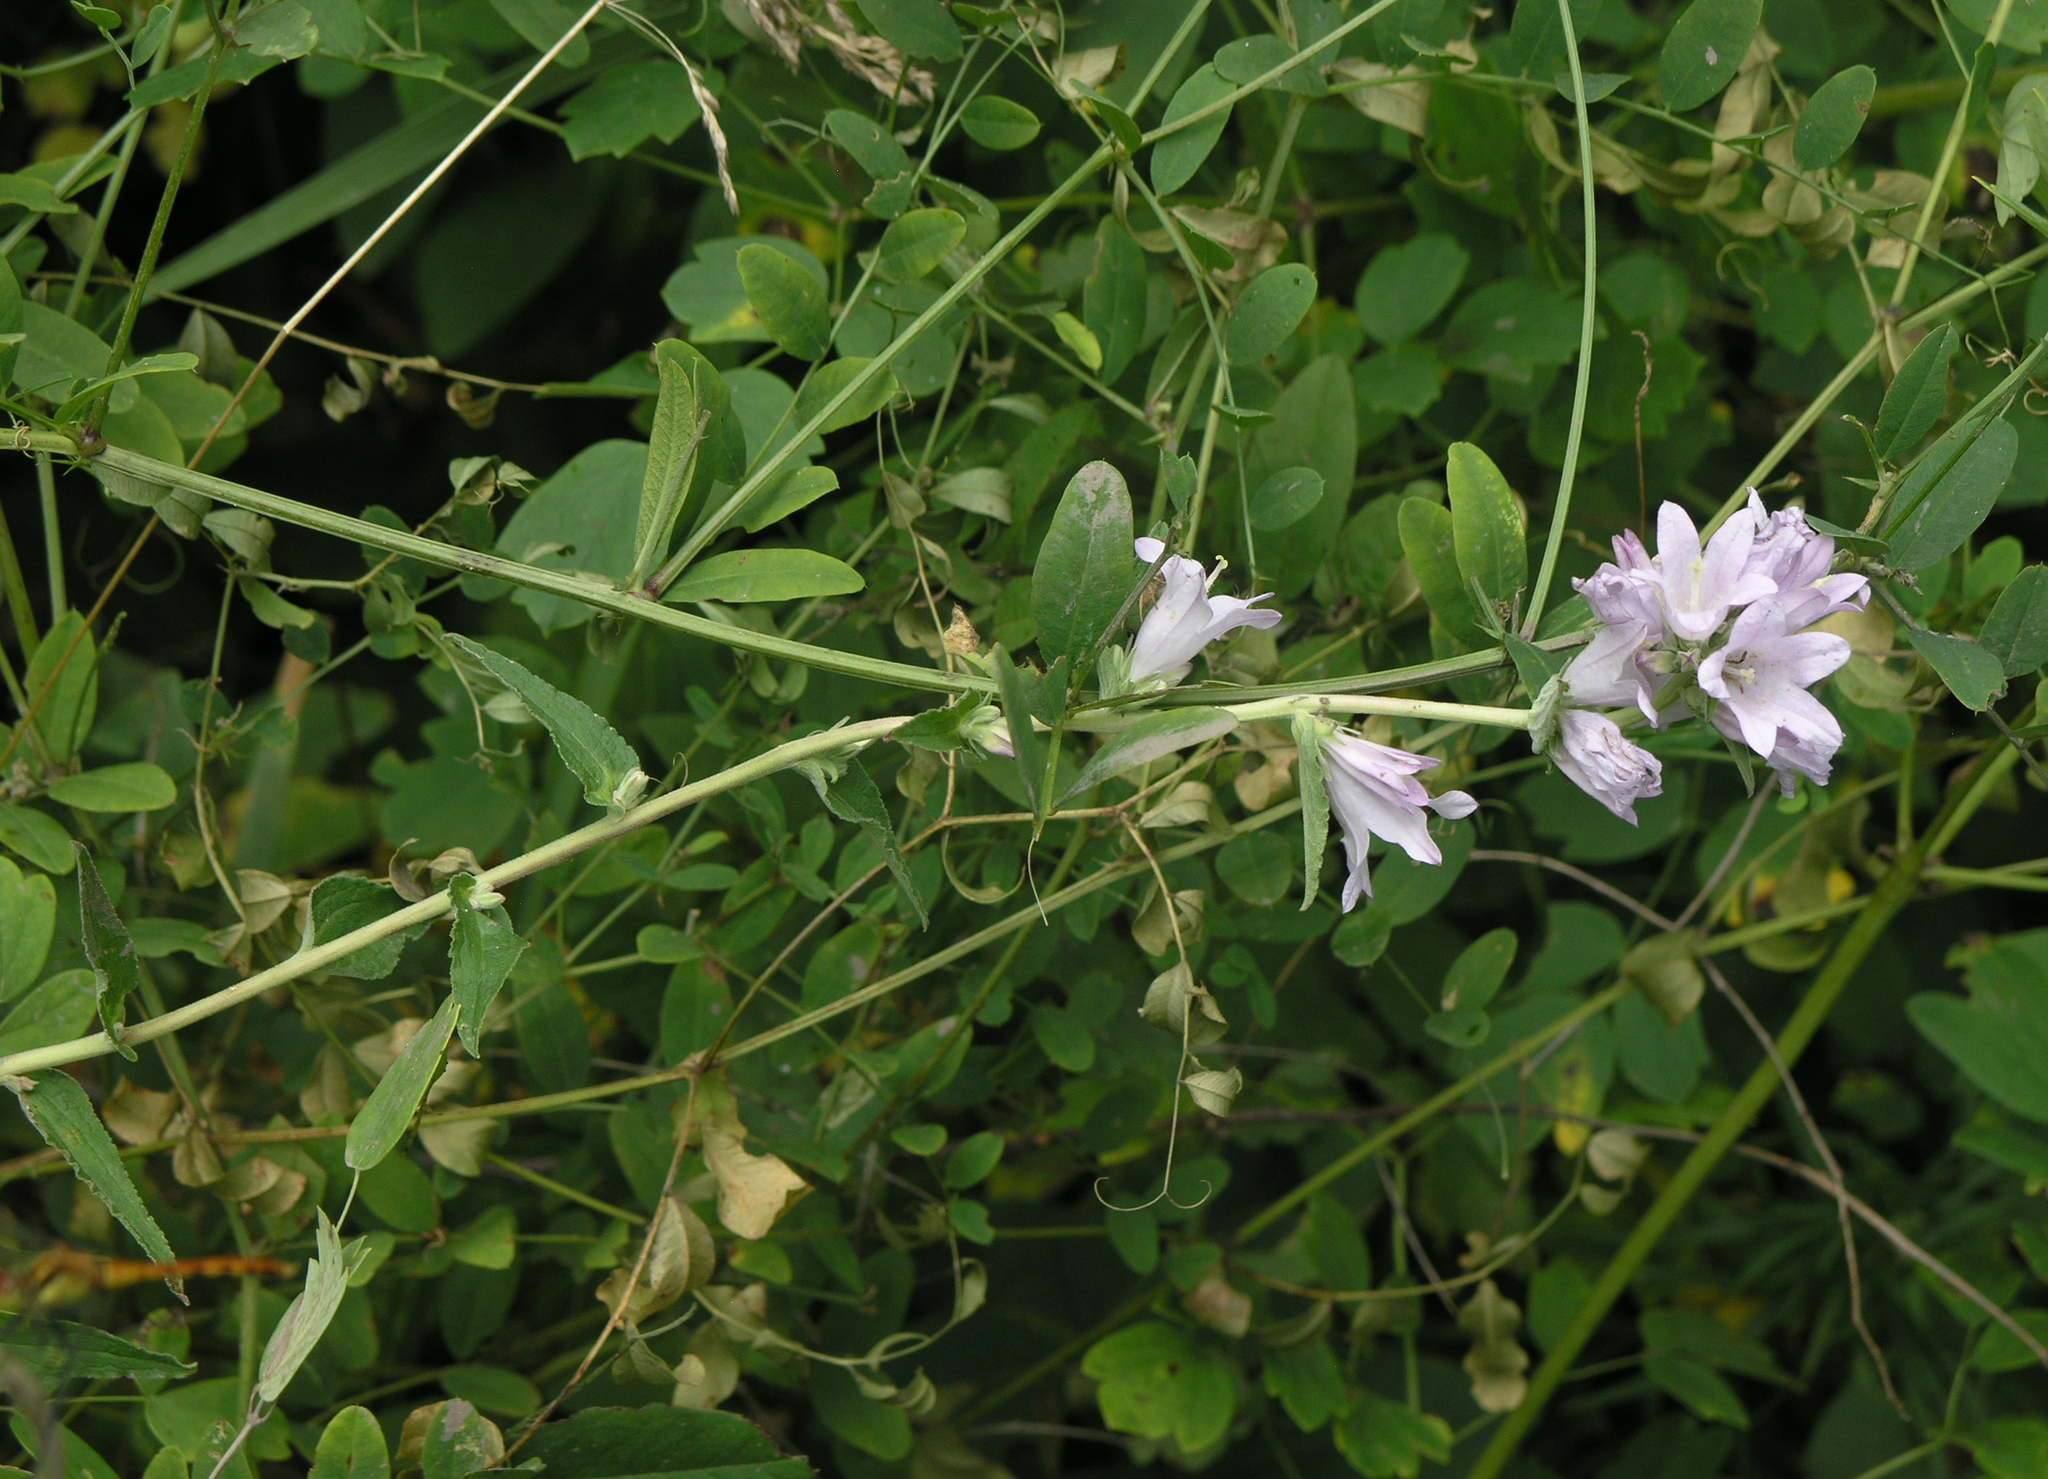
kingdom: Plantae
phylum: Tracheophyta
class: Magnoliopsida
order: Asterales
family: Campanulaceae
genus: Campanula
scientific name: Campanula glomerata
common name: Clustered bellflower
